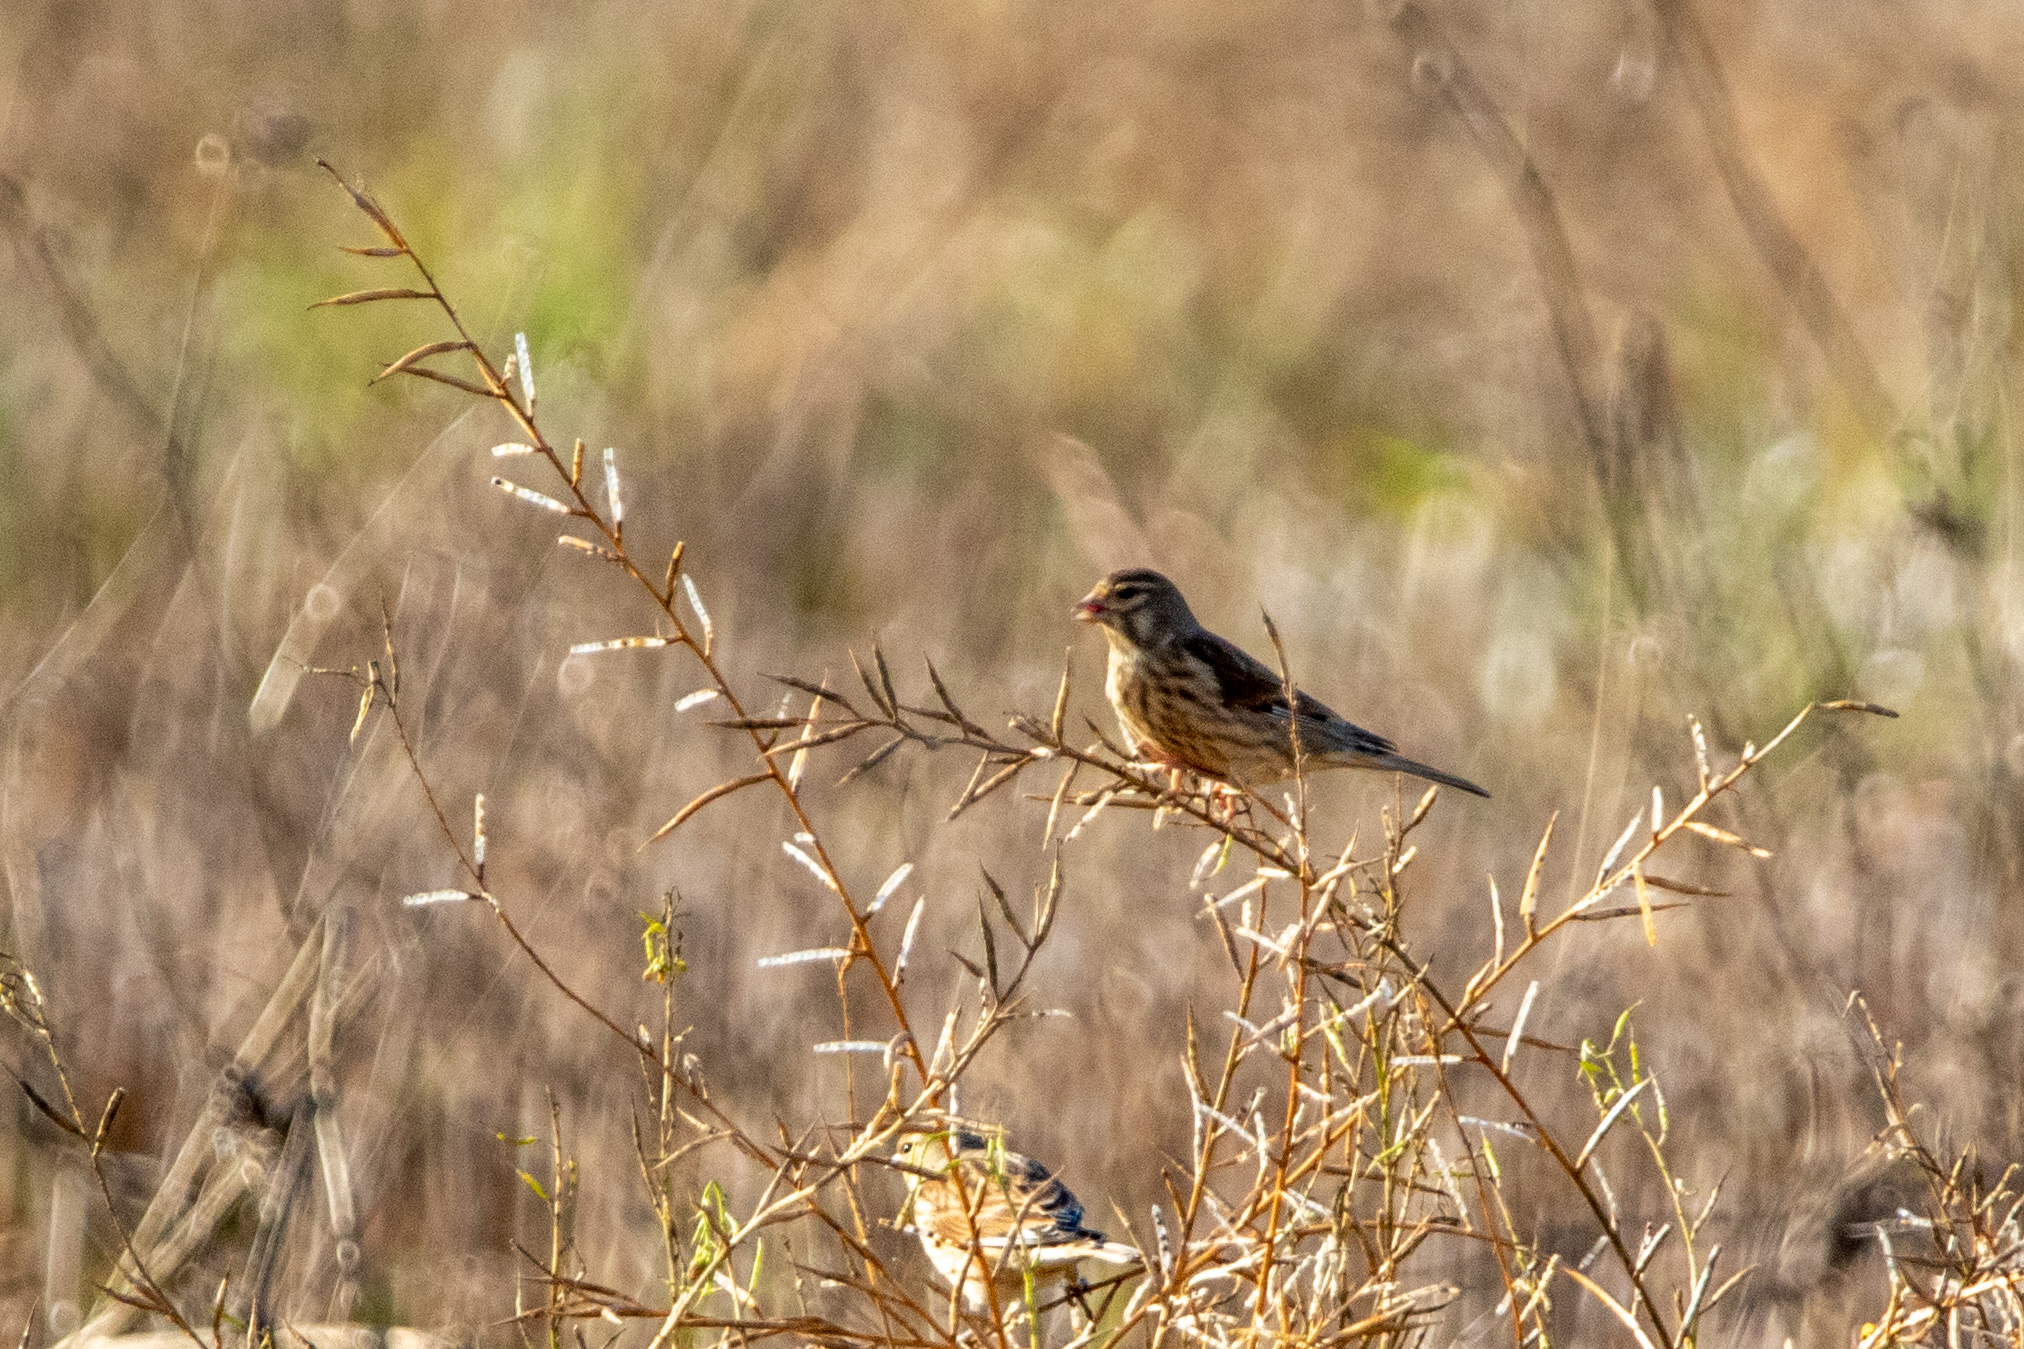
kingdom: Animalia
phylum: Chordata
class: Aves
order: Passeriformes
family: Fringillidae
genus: Linaria
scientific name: Linaria cannabina
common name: Common linnet
